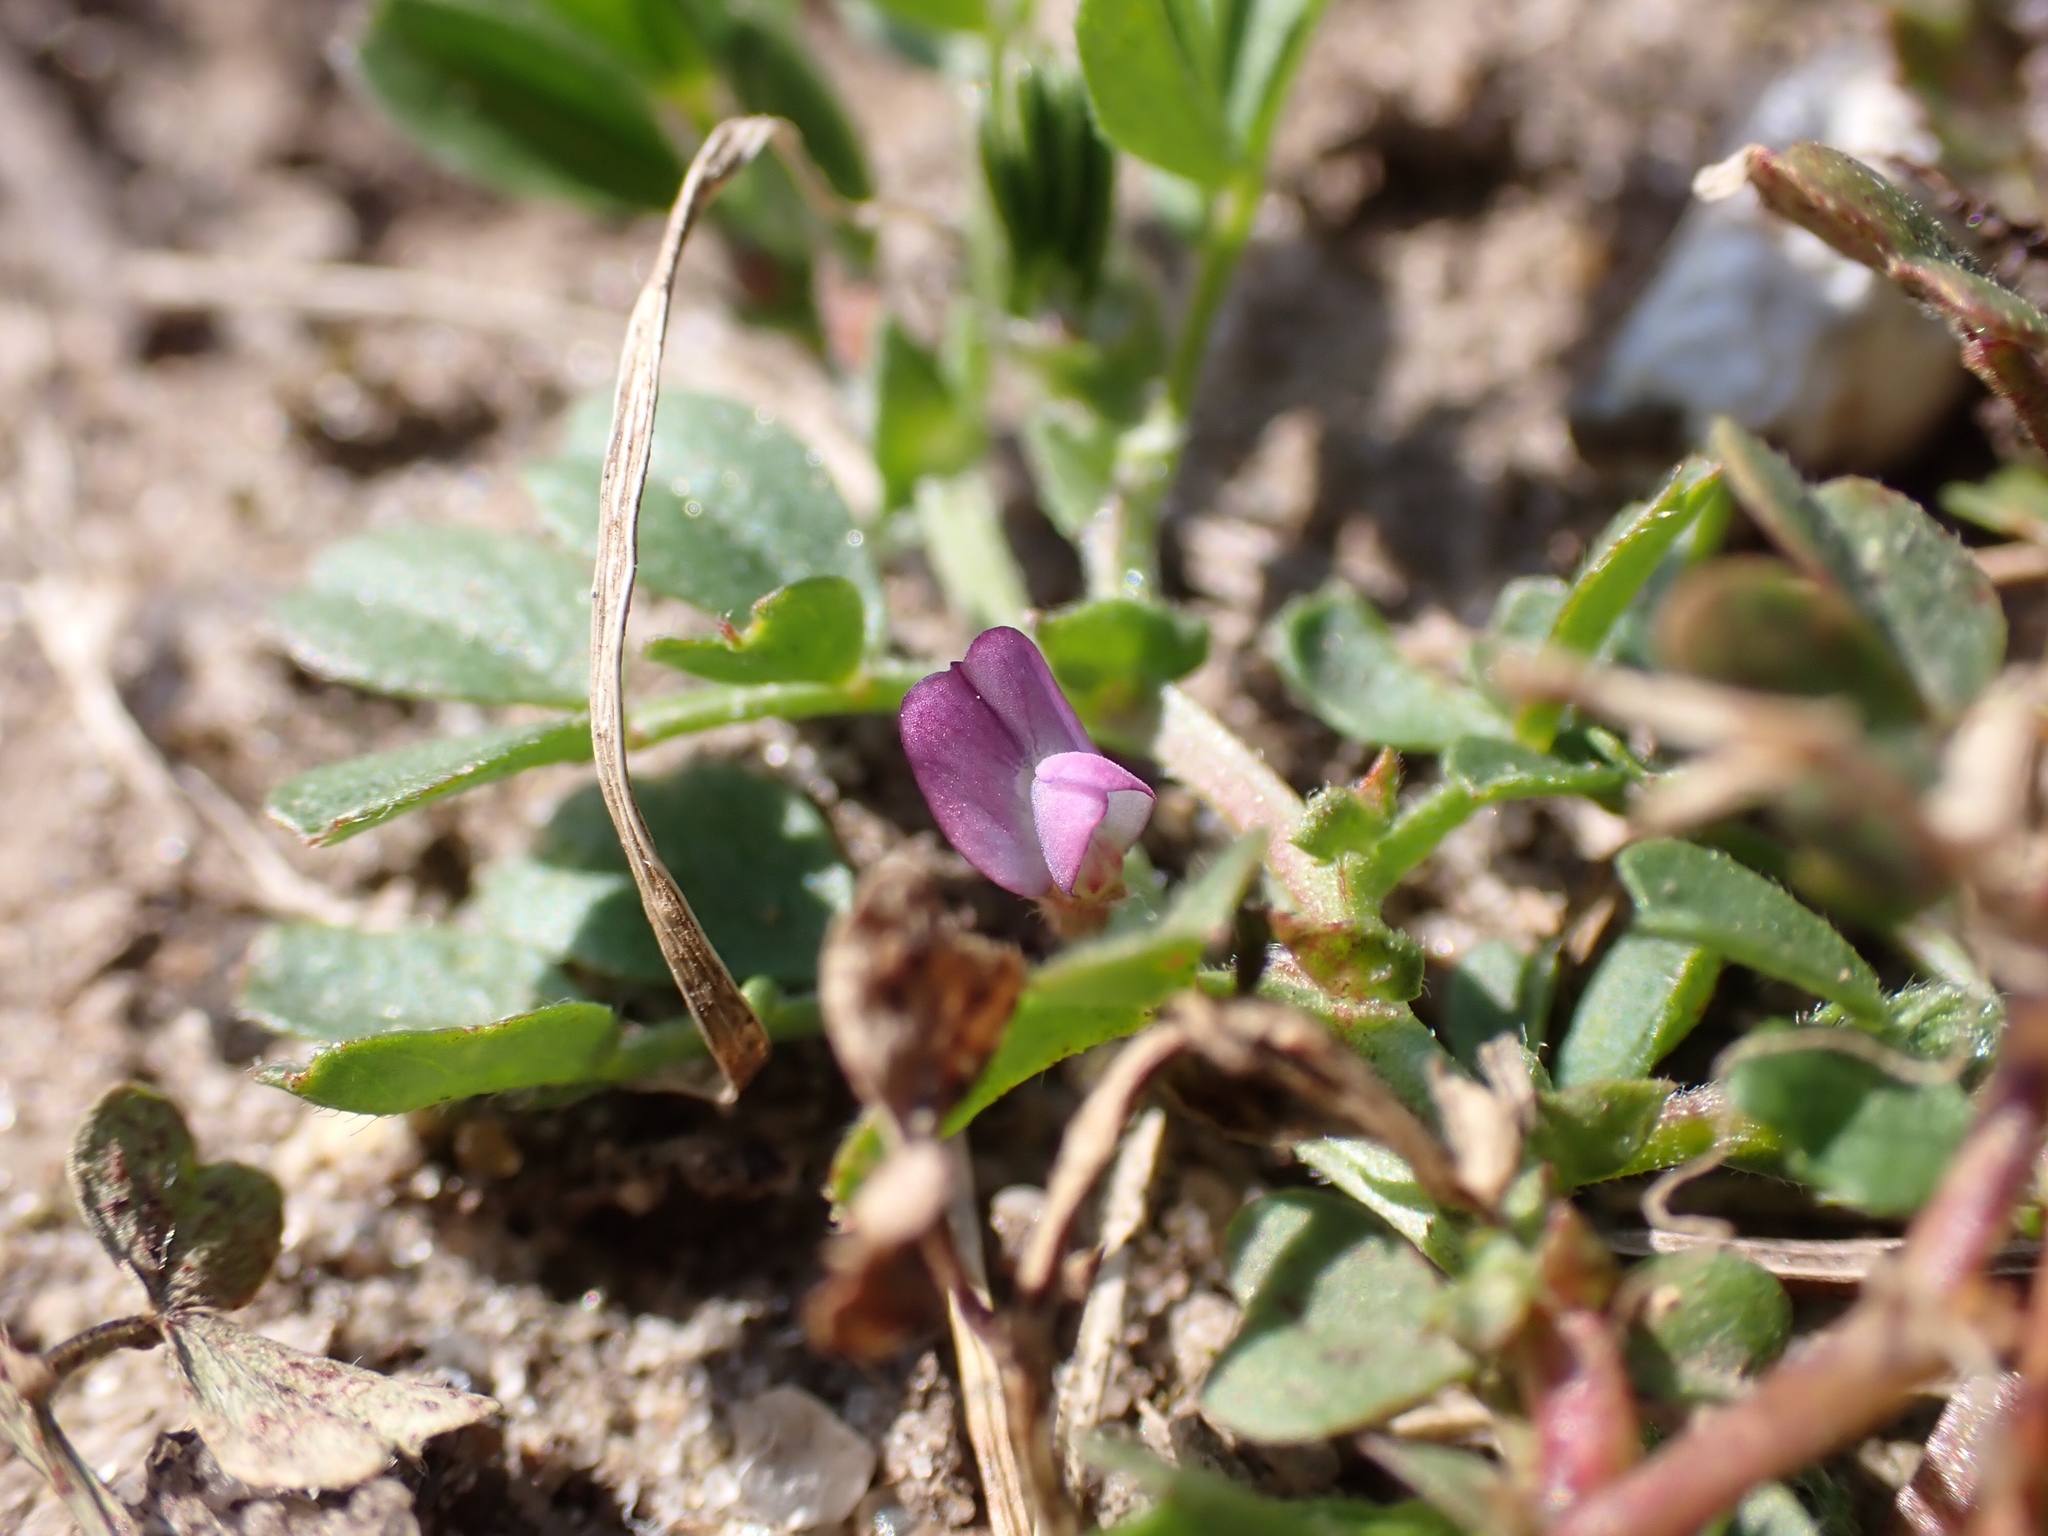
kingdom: Plantae
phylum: Tracheophyta
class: Magnoliopsida
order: Fabales
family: Fabaceae
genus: Vicia
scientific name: Vicia lathyroides
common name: Spring vetch
